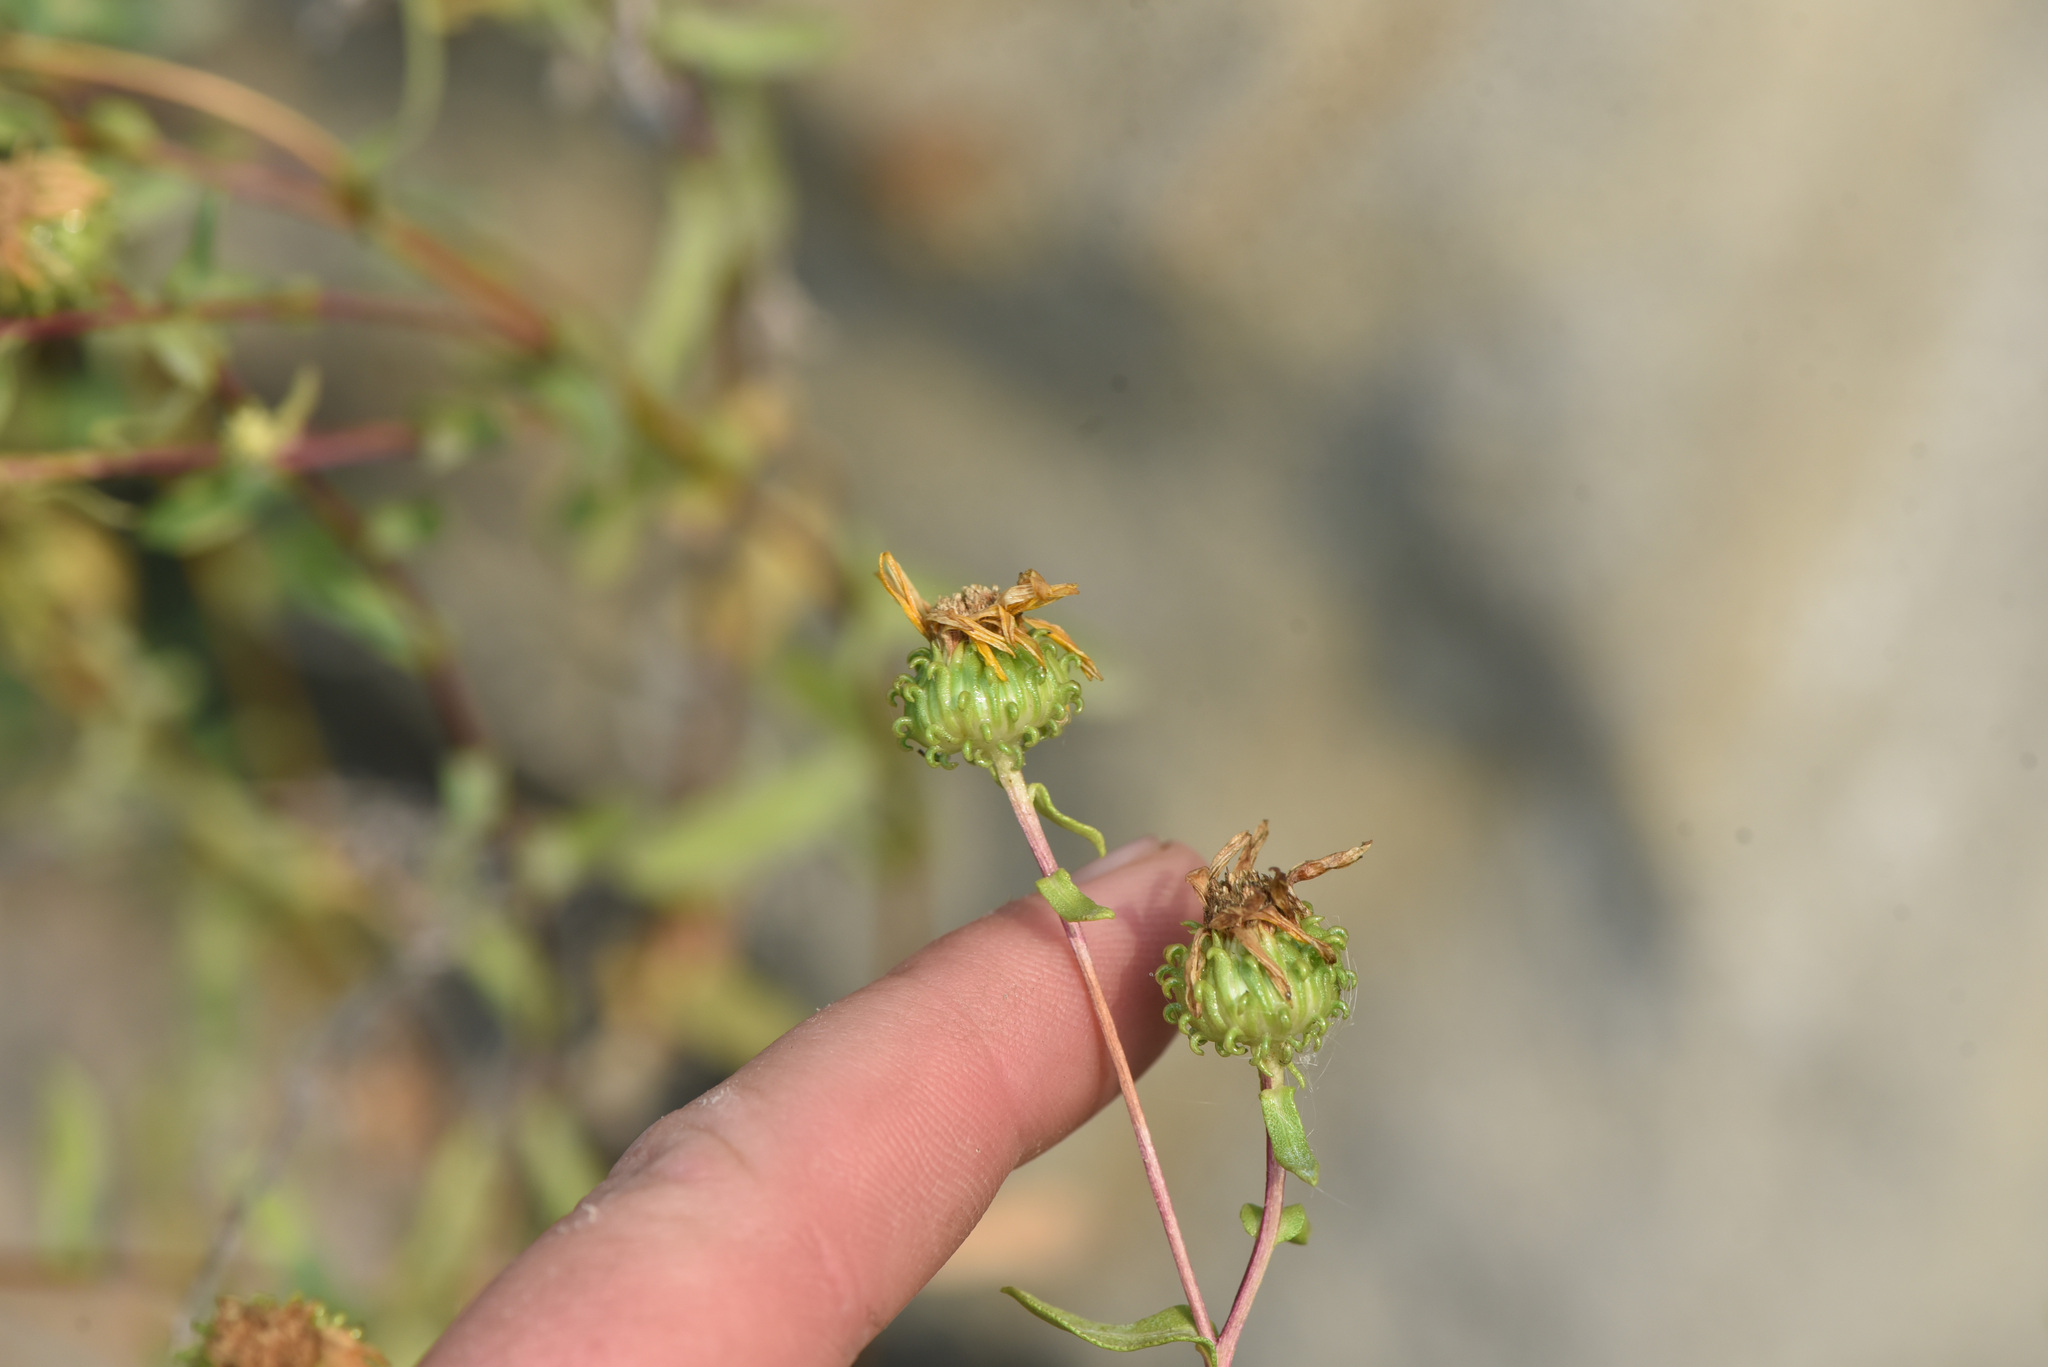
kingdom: Plantae
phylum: Tracheophyta
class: Magnoliopsida
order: Asterales
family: Asteraceae
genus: Grindelia
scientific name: Grindelia squarrosa
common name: Curly-cup gumweed
